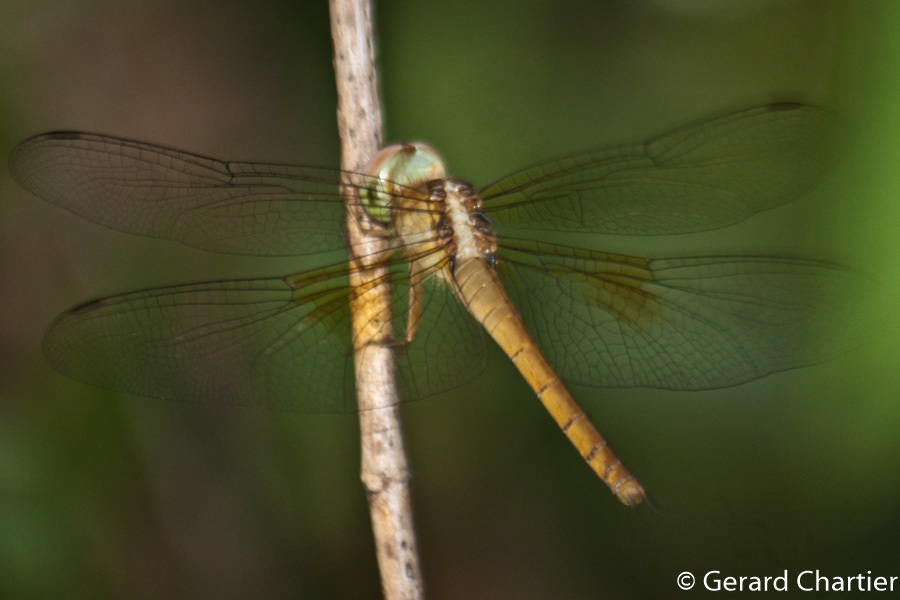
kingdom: Animalia
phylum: Arthropoda
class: Insecta
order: Odonata
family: Libellulidae
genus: Tholymis
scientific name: Tholymis tillarga
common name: Coral-tailed cloud wing
